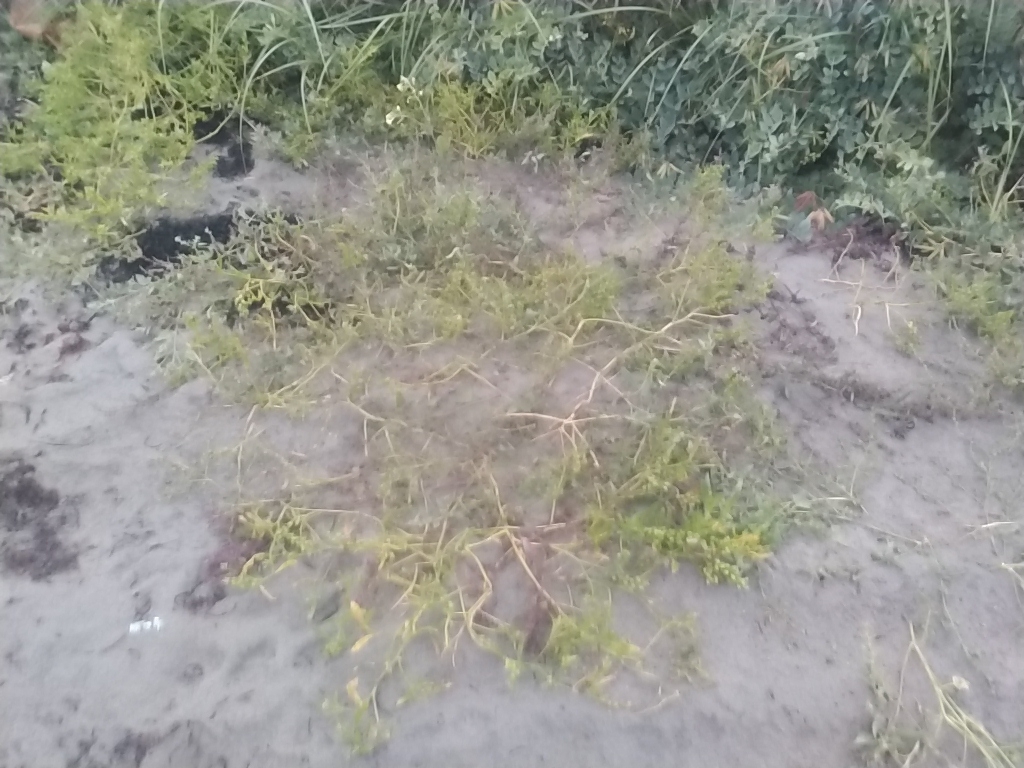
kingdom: Plantae
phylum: Tracheophyta
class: Magnoliopsida
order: Brassicales
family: Brassicaceae
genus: Cakile
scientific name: Cakile edentula
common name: American sea rocket
